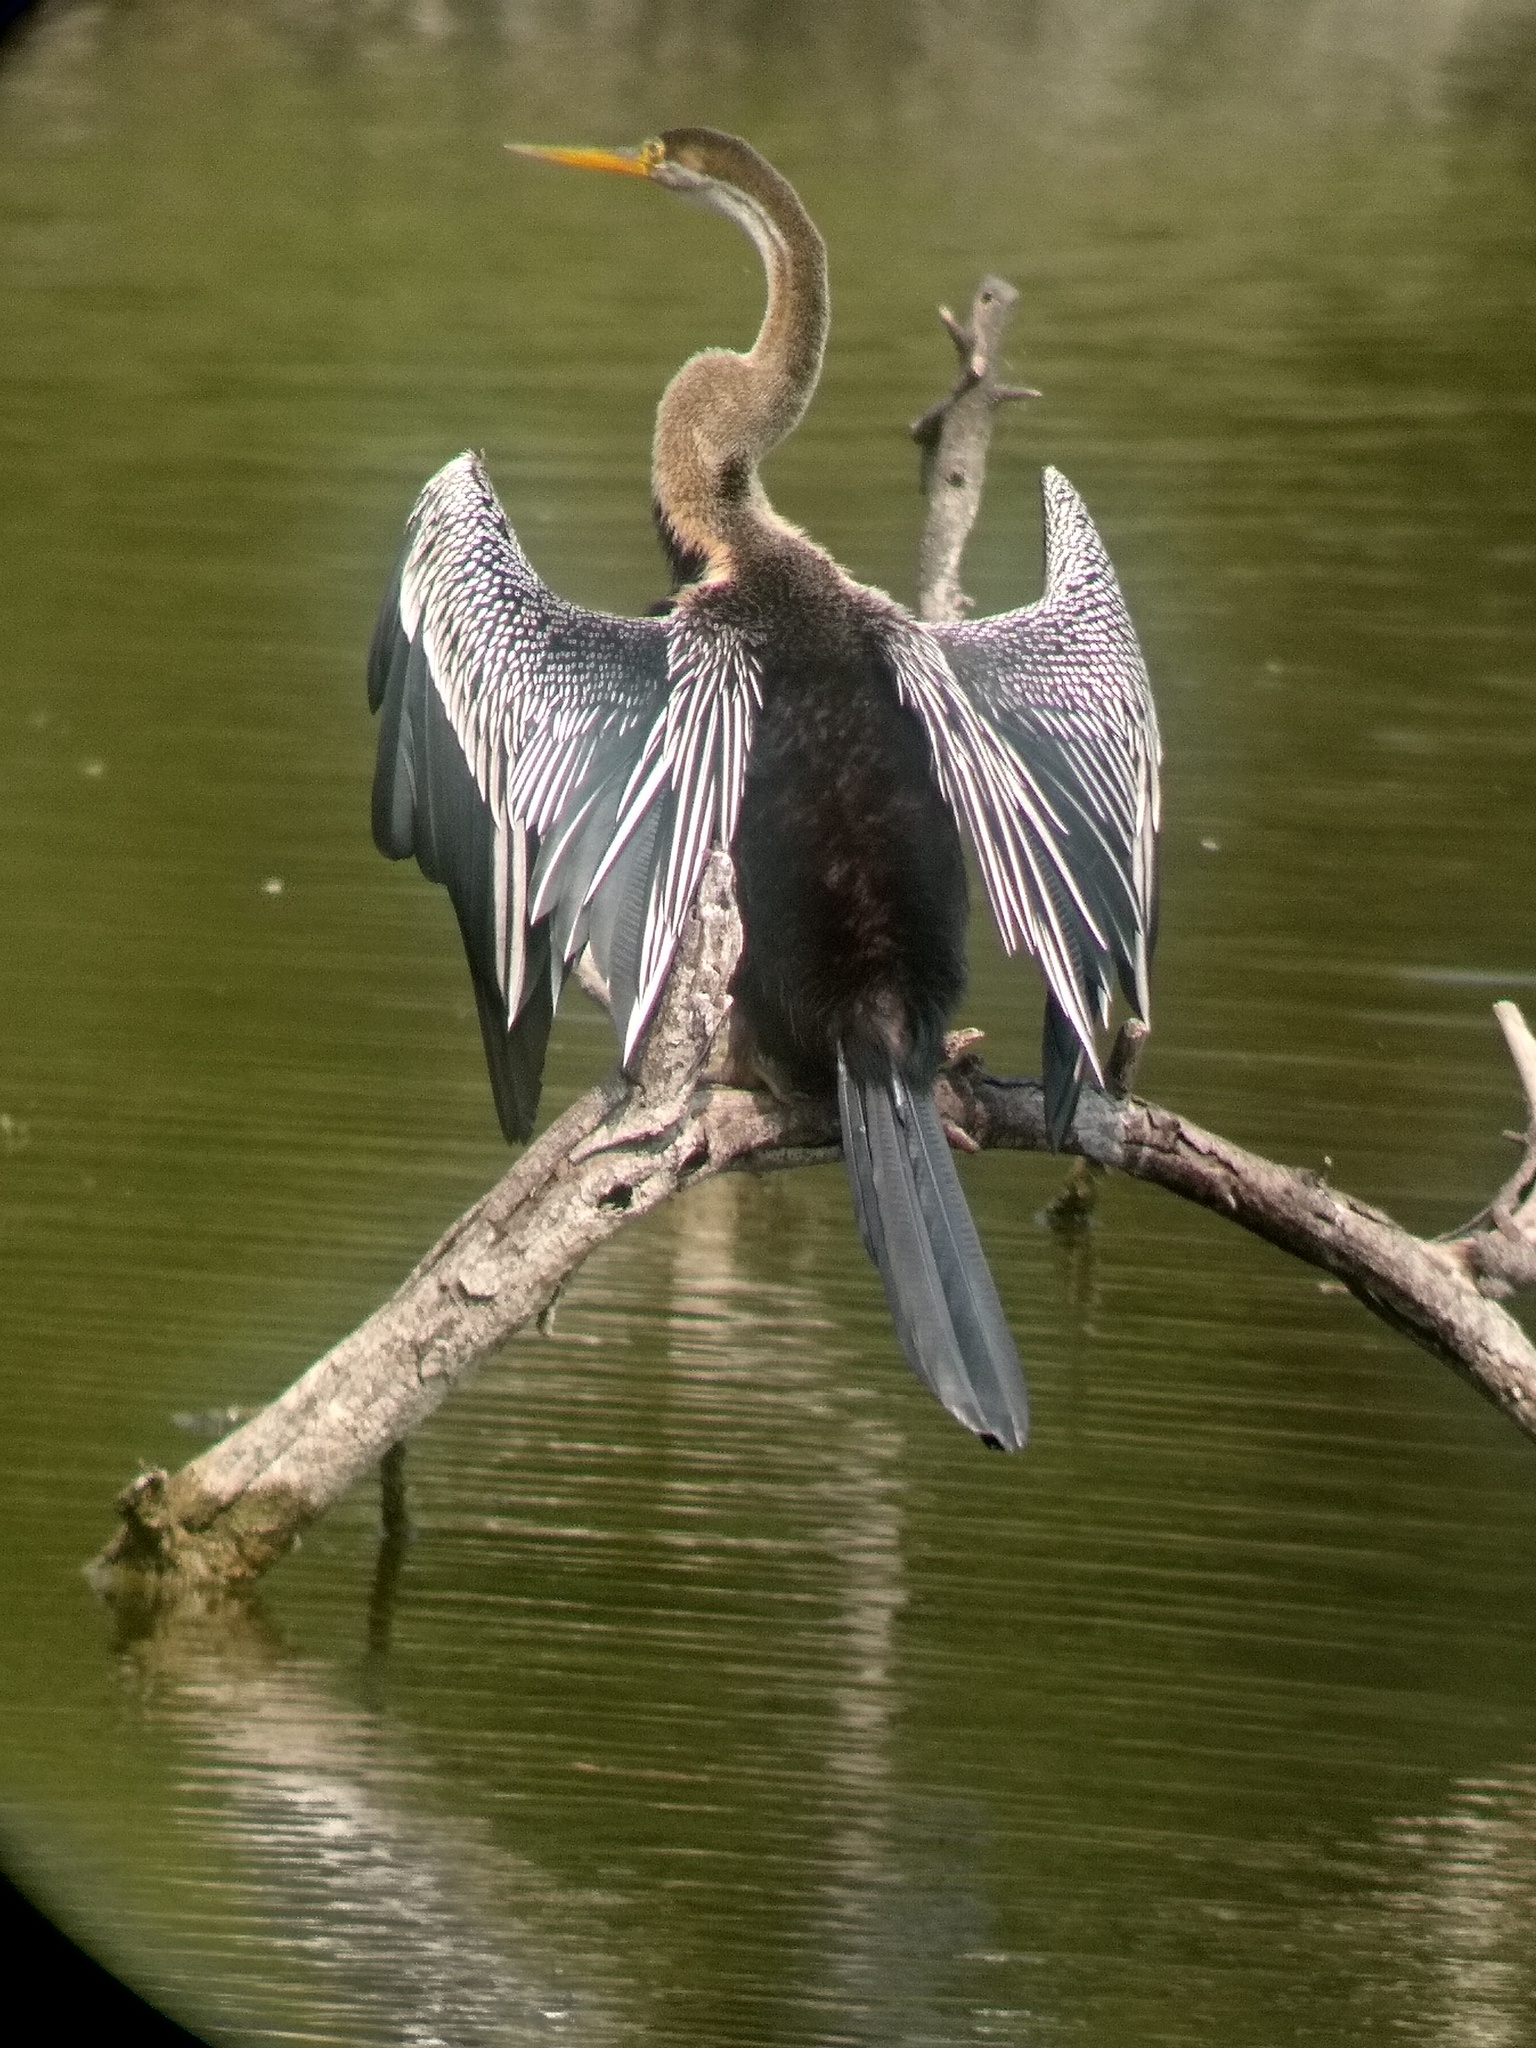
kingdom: Animalia
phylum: Chordata
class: Aves
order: Suliformes
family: Anhingidae
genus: Anhinga
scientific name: Anhinga melanogaster
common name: Oriental darter
